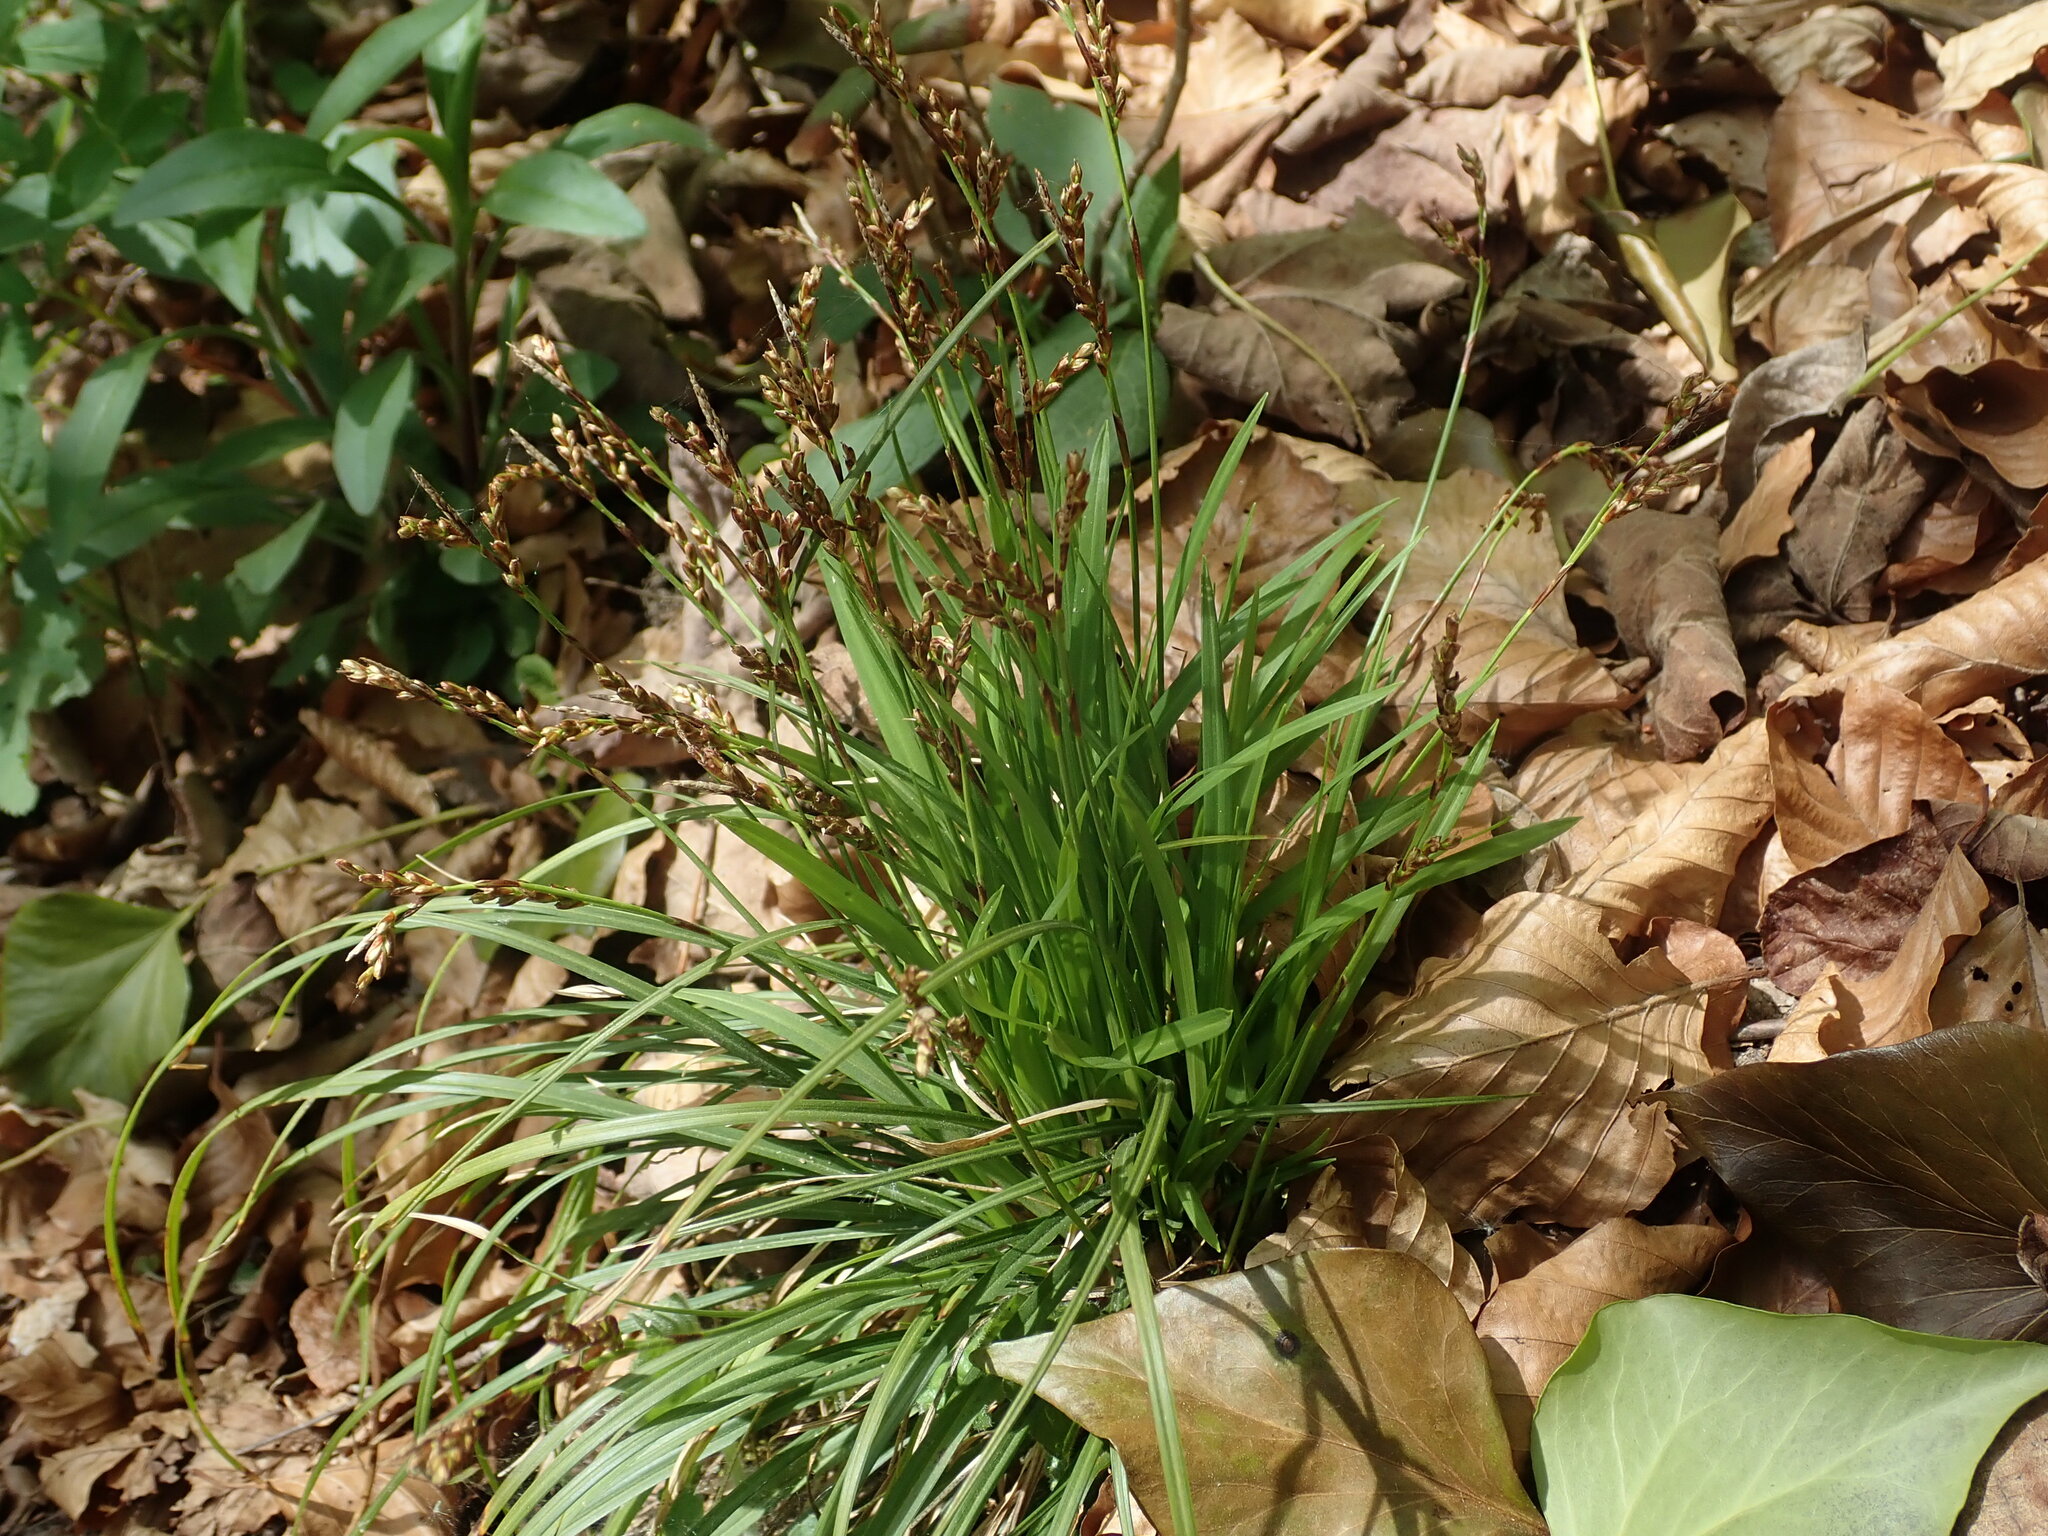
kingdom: Plantae
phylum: Tracheophyta
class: Liliopsida
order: Poales
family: Cyperaceae
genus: Carex
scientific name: Carex digitata
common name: Fingered sedge
